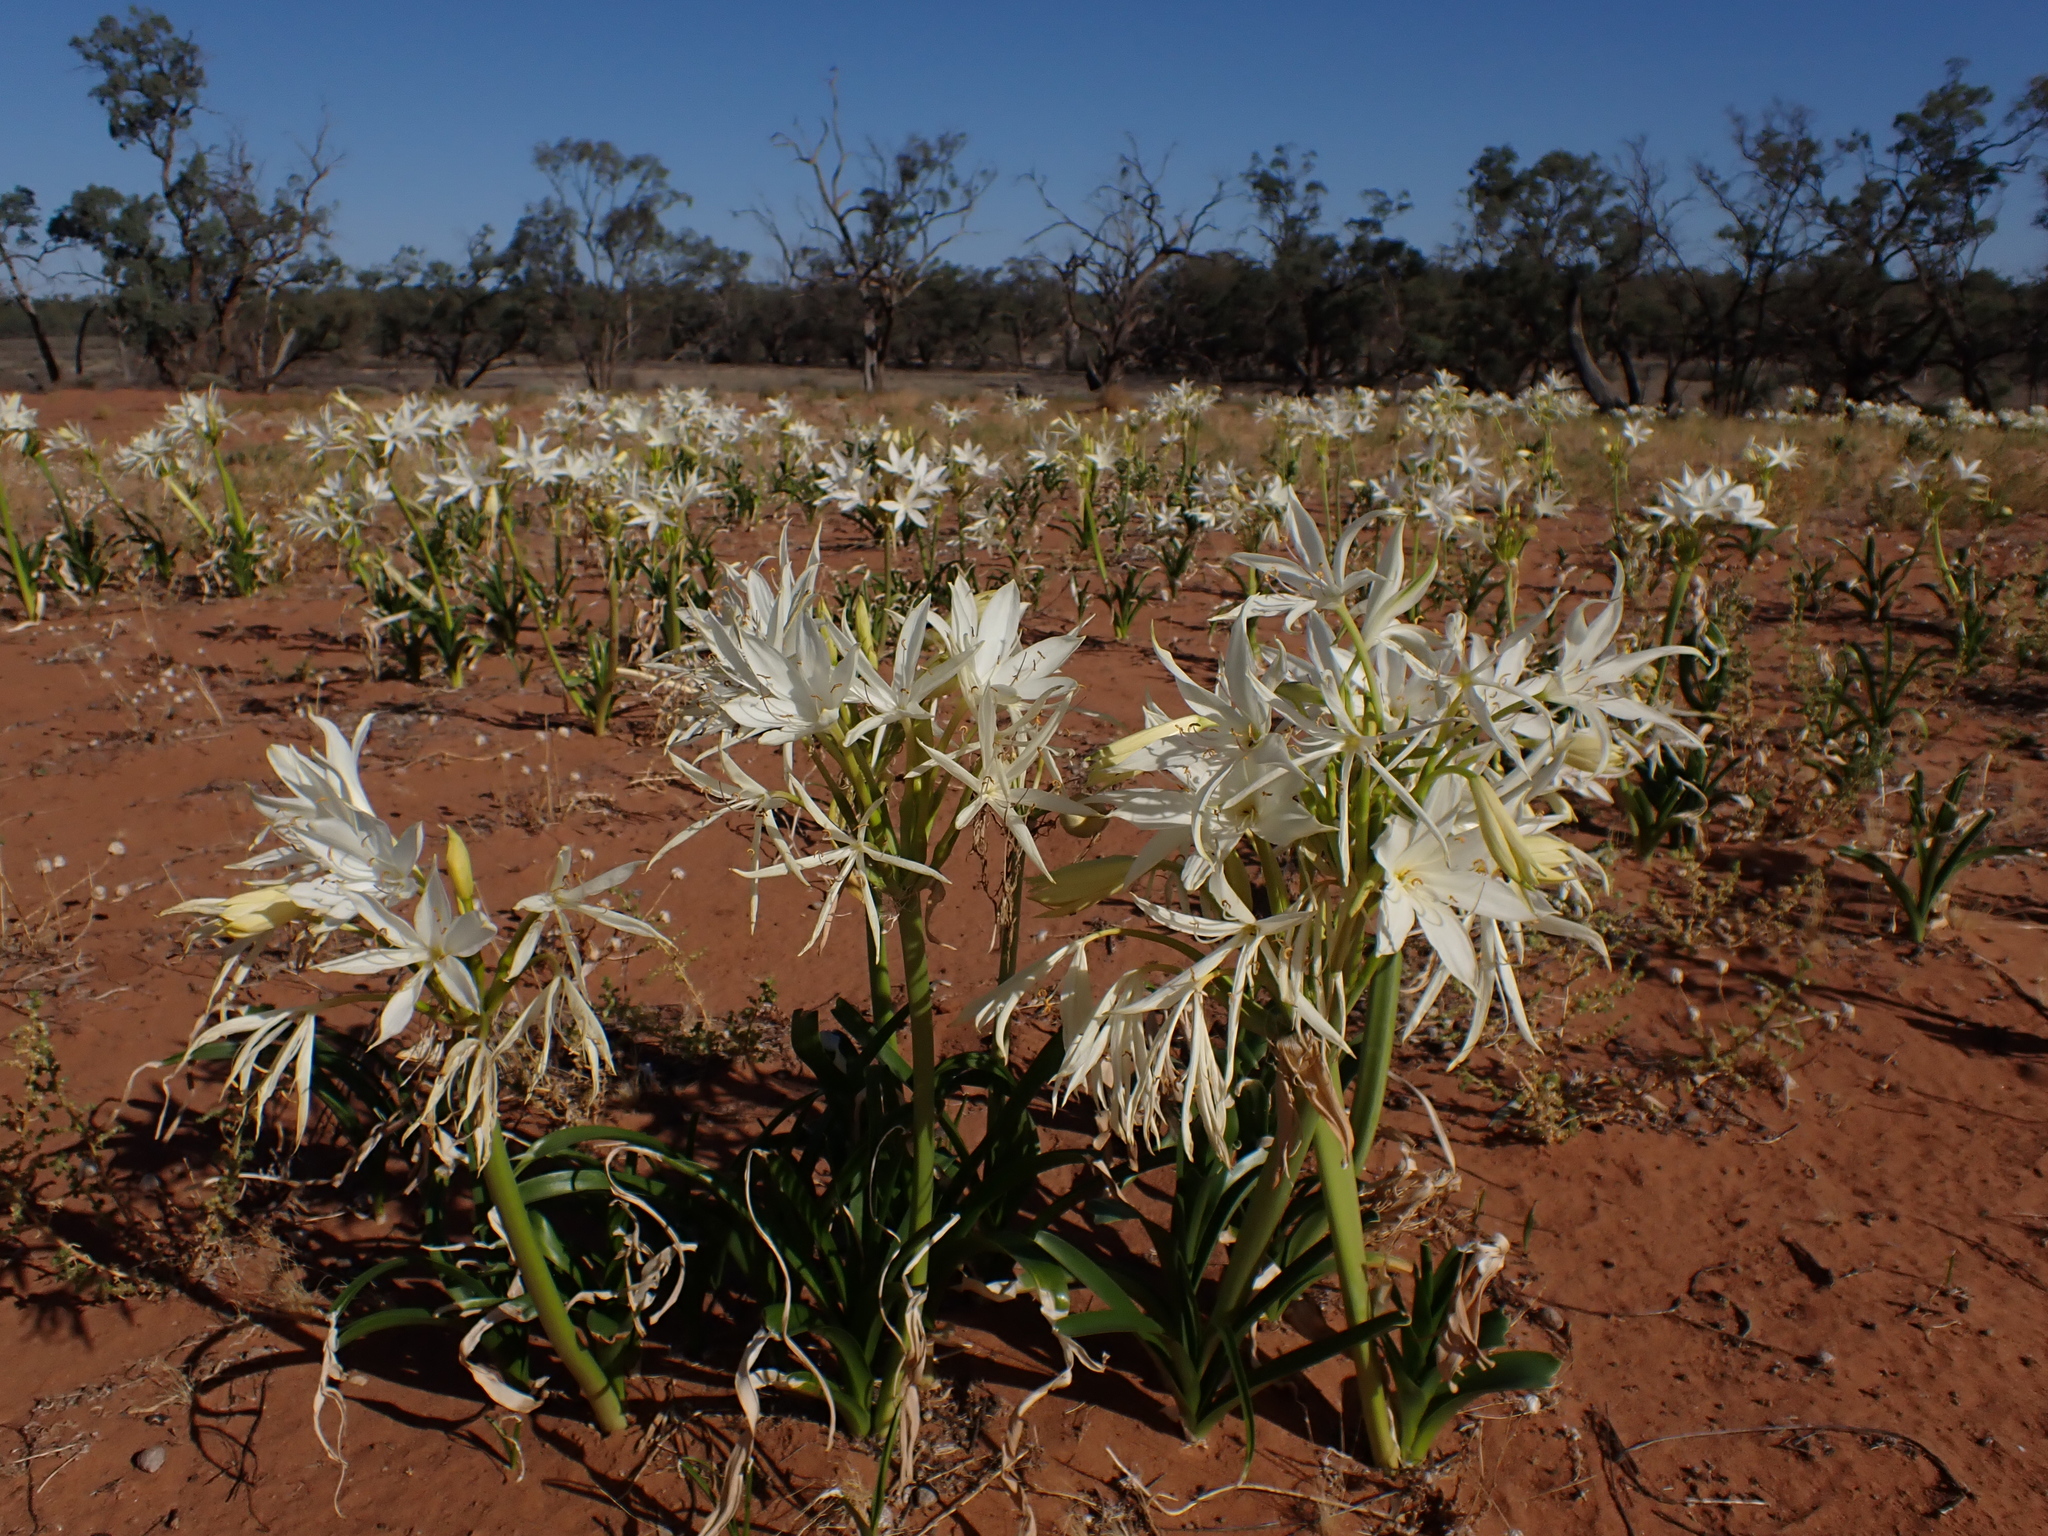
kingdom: Plantae
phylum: Tracheophyta
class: Liliopsida
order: Asparagales
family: Amaryllidaceae
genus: Crinum
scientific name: Crinum flaccidum
